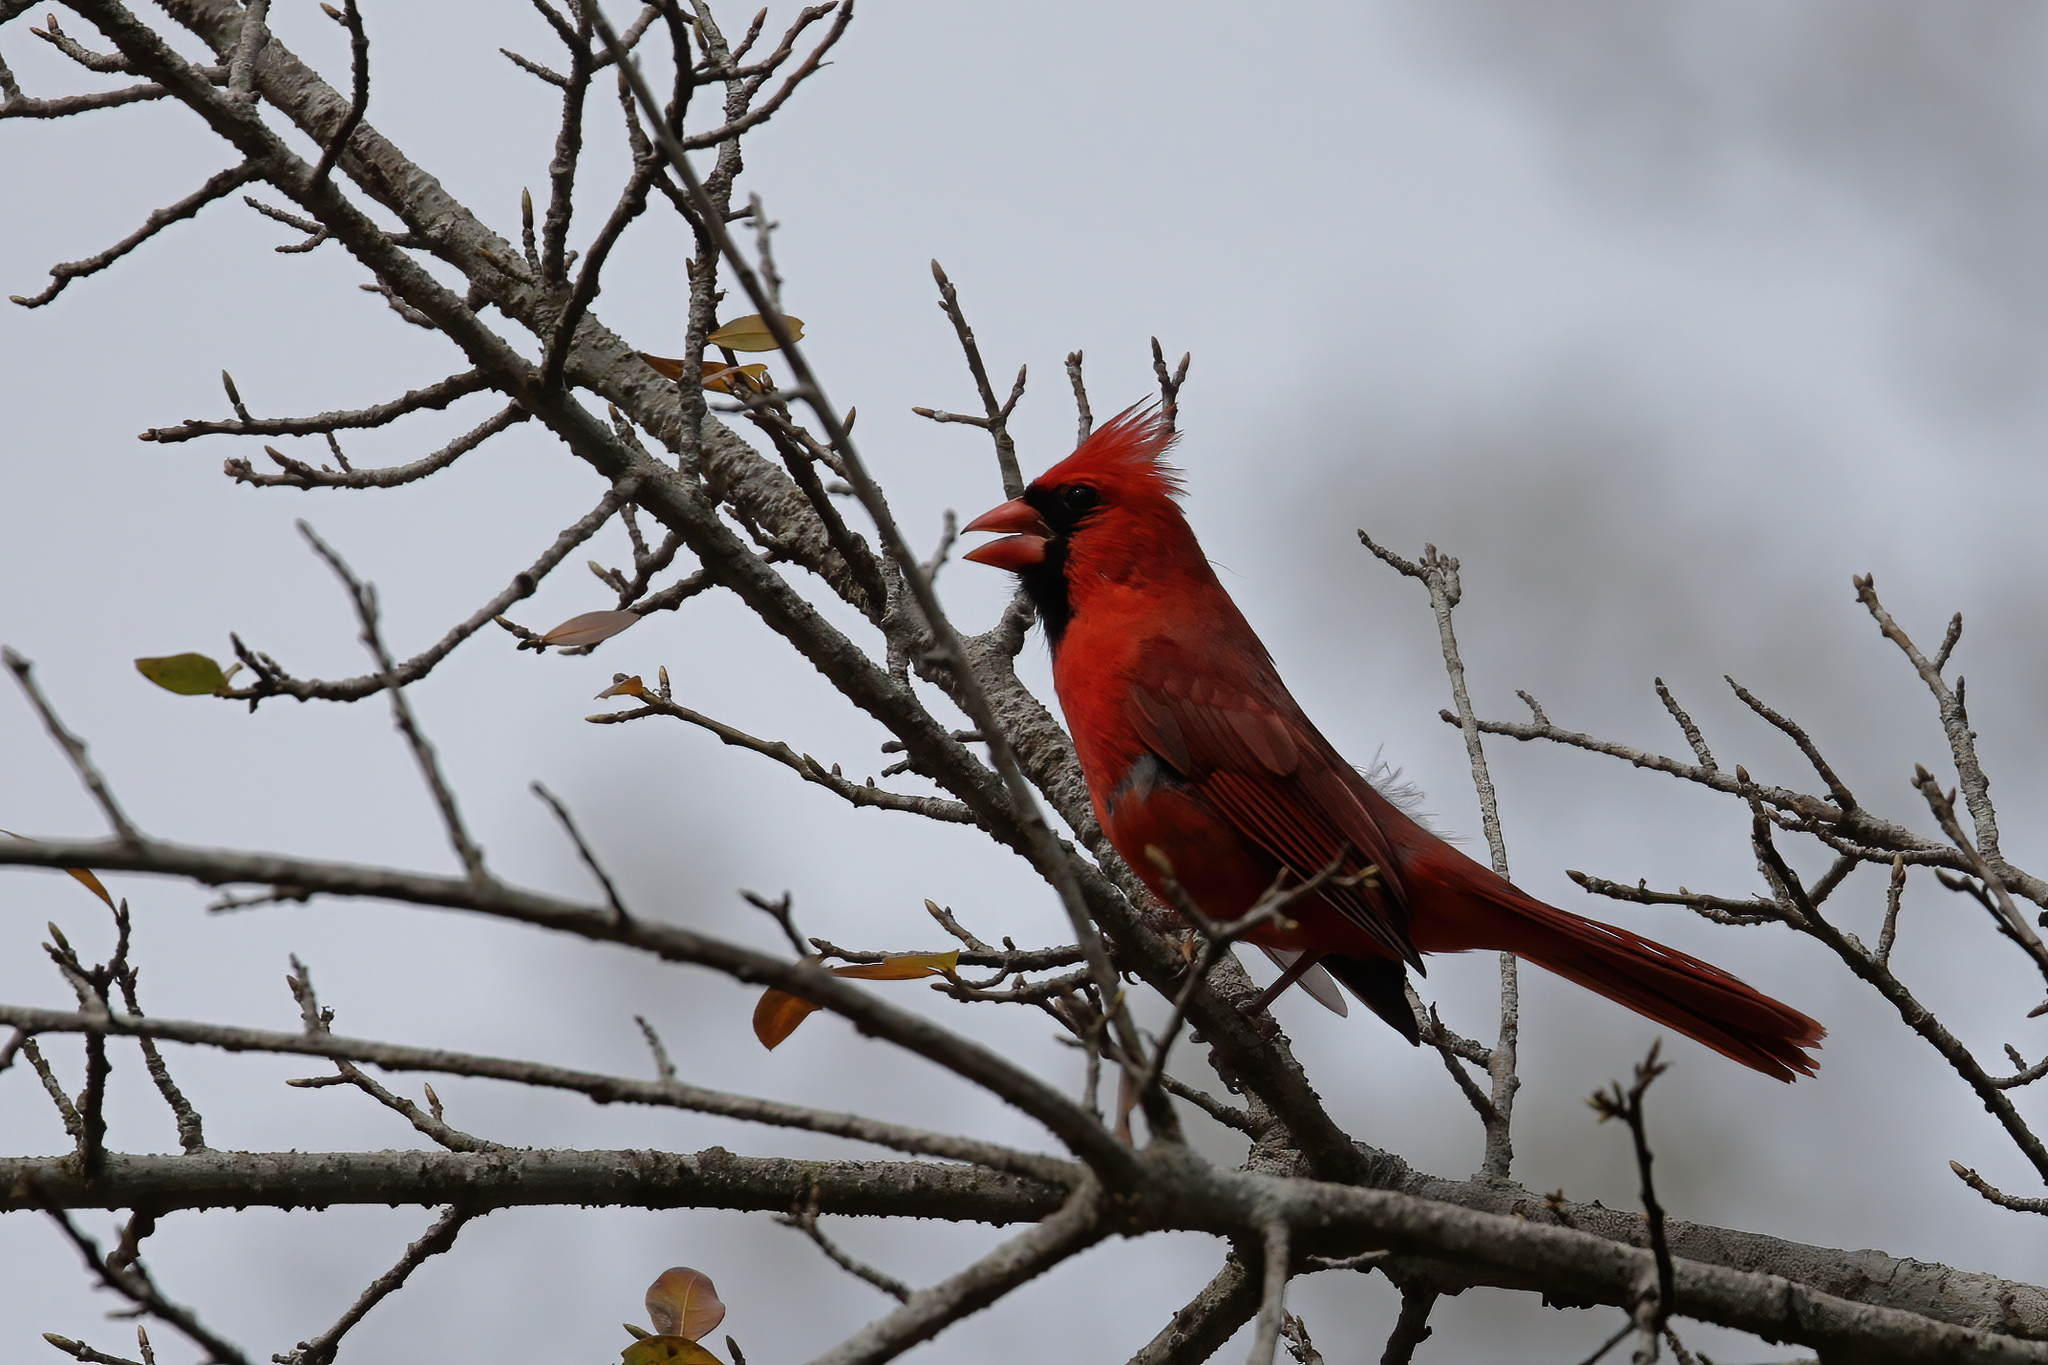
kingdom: Animalia
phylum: Chordata
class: Aves
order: Passeriformes
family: Cardinalidae
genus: Cardinalis
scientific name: Cardinalis cardinalis
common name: Northern cardinal
